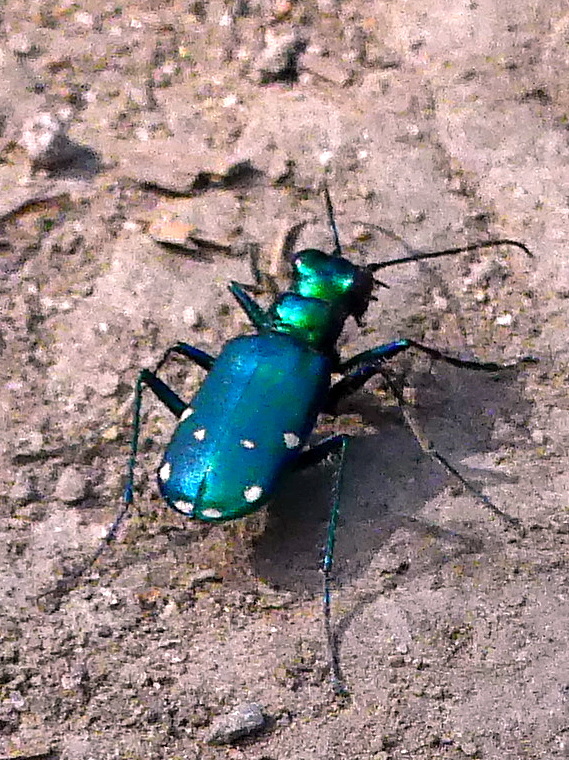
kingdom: Animalia
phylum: Arthropoda
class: Insecta
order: Coleoptera
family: Carabidae
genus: Cicindela
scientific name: Cicindela sexguttata
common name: Six-spotted tiger beetle
